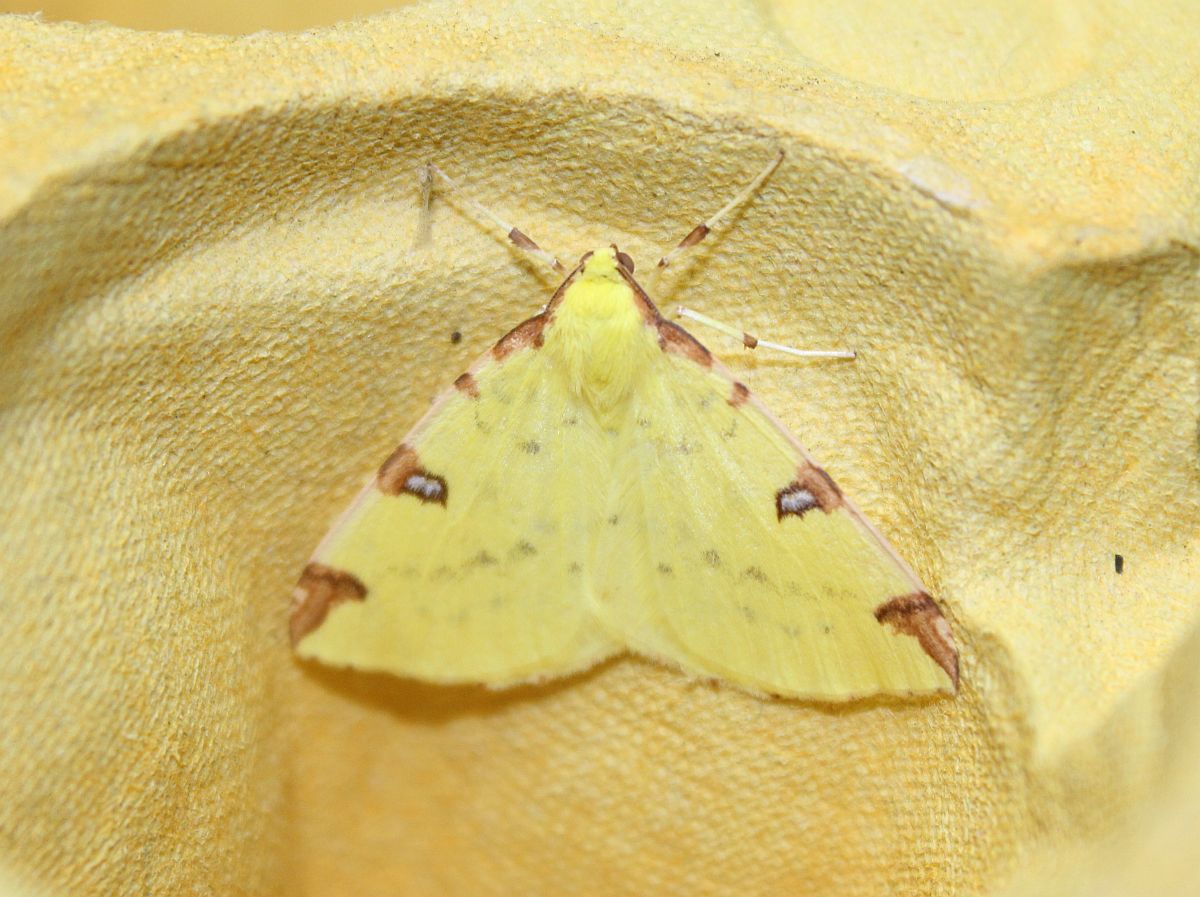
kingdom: Animalia
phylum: Arthropoda
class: Insecta
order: Lepidoptera
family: Geometridae
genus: Opisthograptis
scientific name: Opisthograptis luteolata
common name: Brimstone moth
